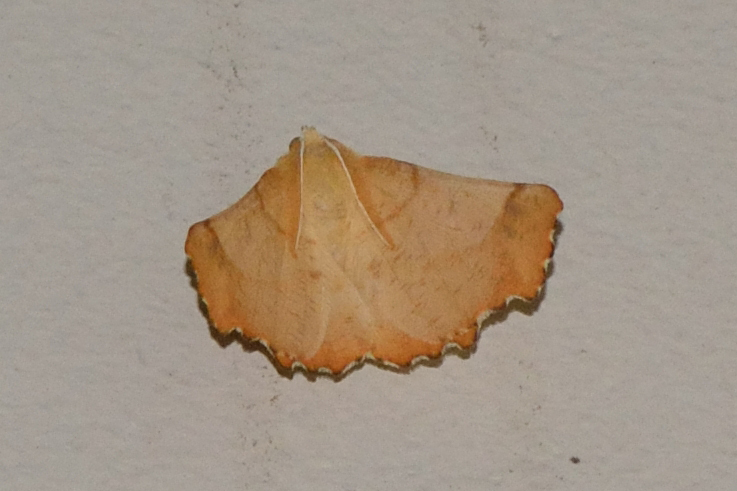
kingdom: Animalia
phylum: Arthropoda
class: Insecta
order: Lepidoptera
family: Geometridae
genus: Ennomos
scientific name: Ennomos autumnaria
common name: Large thorn
